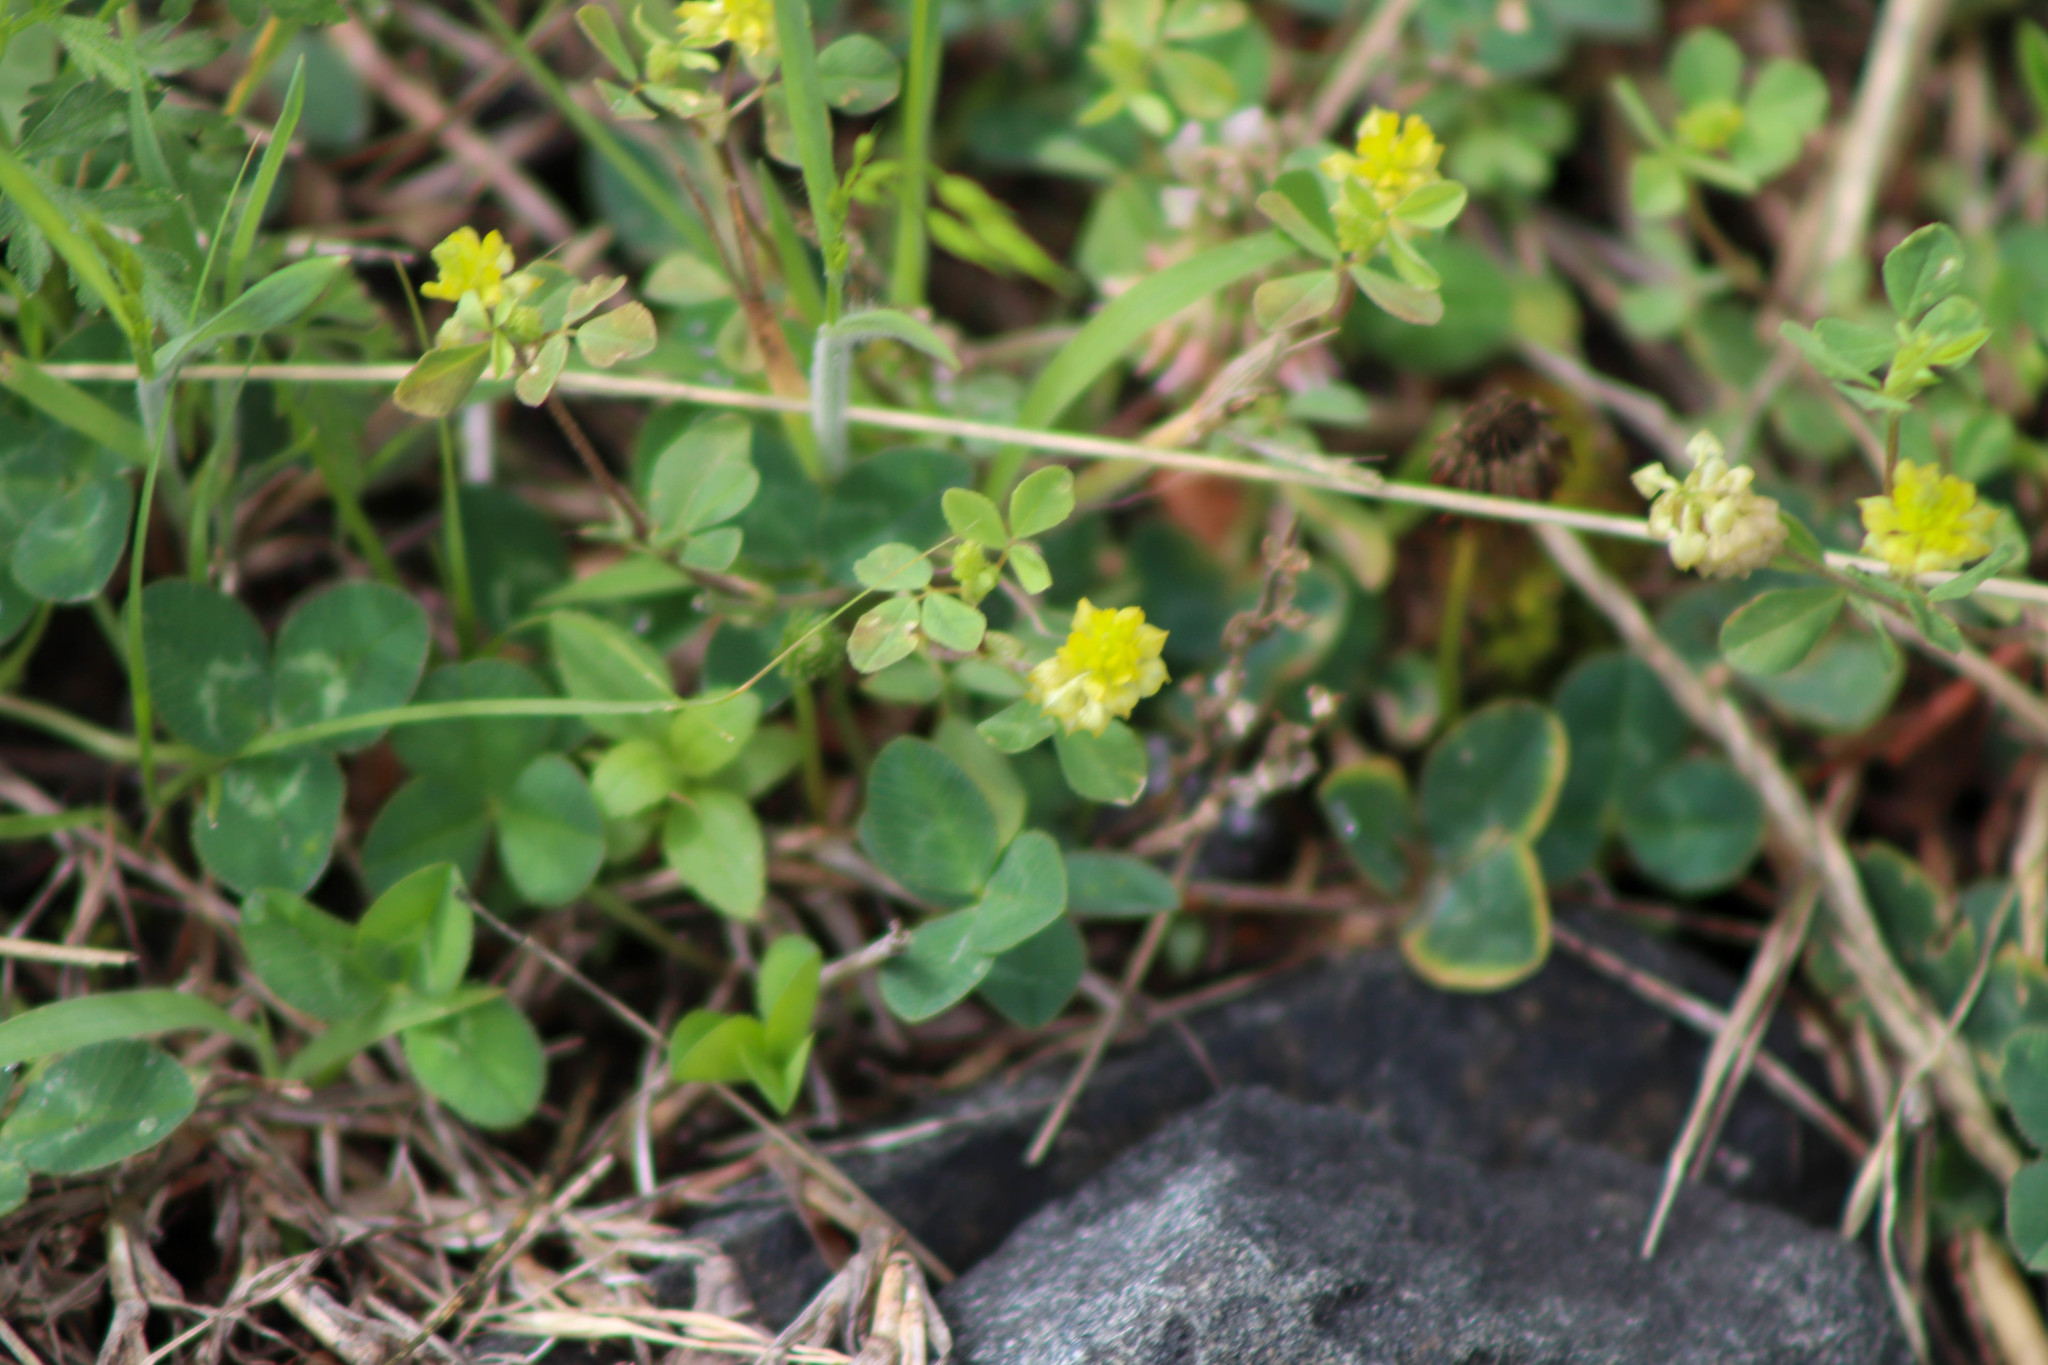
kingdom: Plantae
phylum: Tracheophyta
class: Magnoliopsida
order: Fabales
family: Fabaceae
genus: Trifolium
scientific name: Trifolium campestre
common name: Field clover
